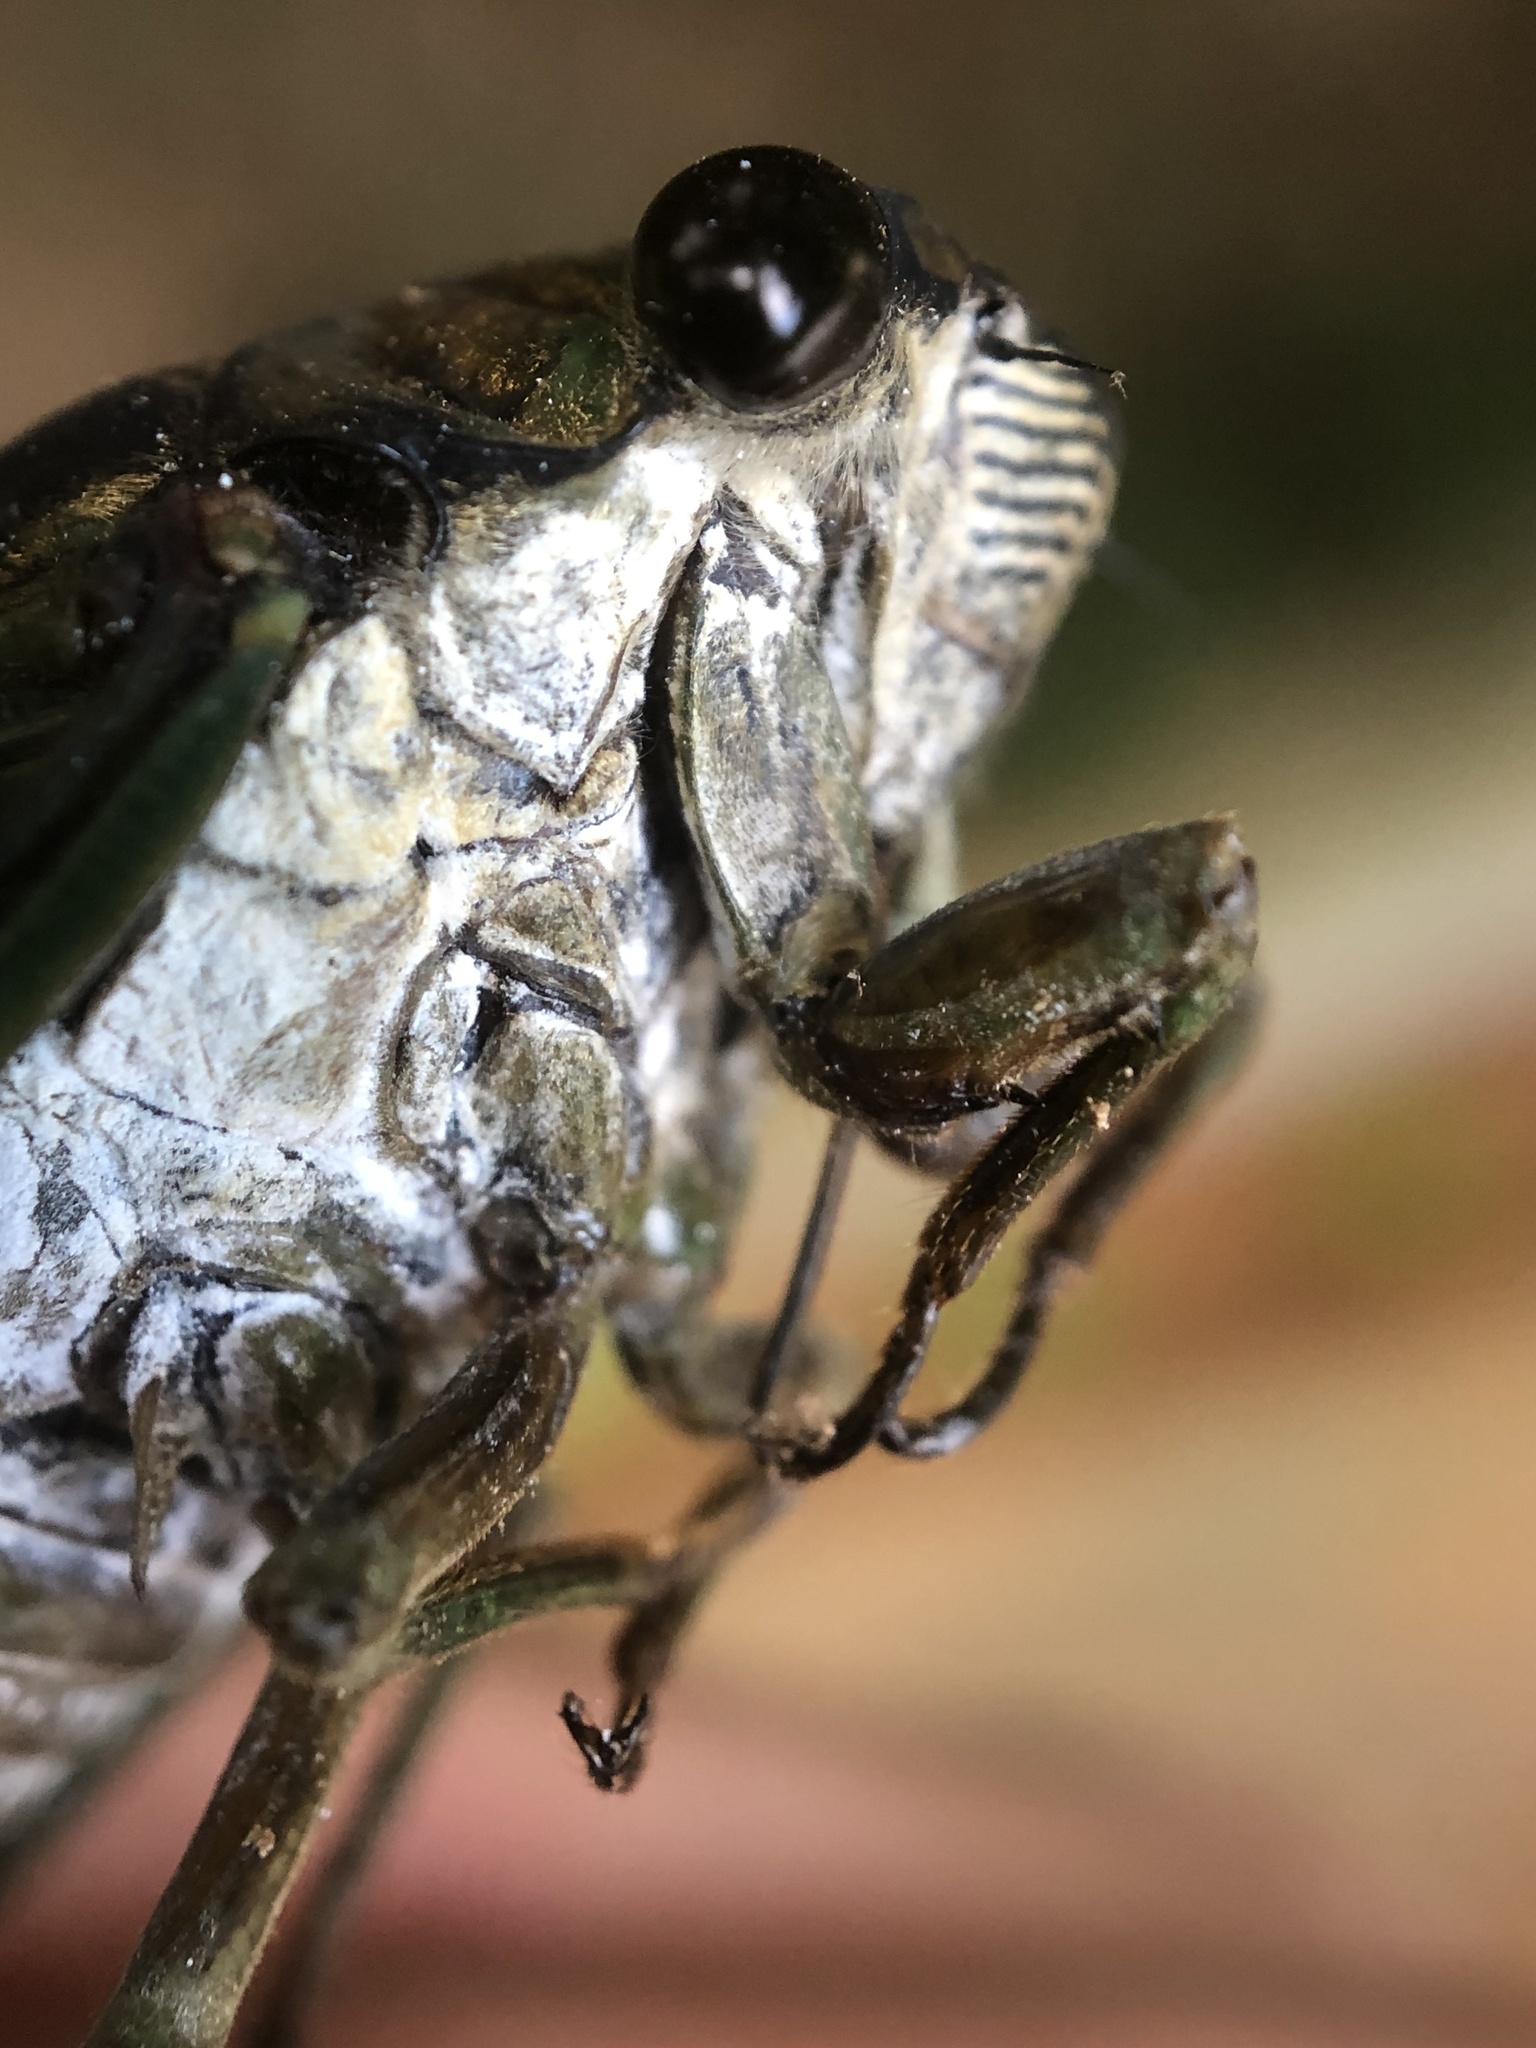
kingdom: Animalia
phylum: Arthropoda
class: Insecta
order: Hemiptera
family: Cicadidae
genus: Neotibicen
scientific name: Neotibicen tibicen
